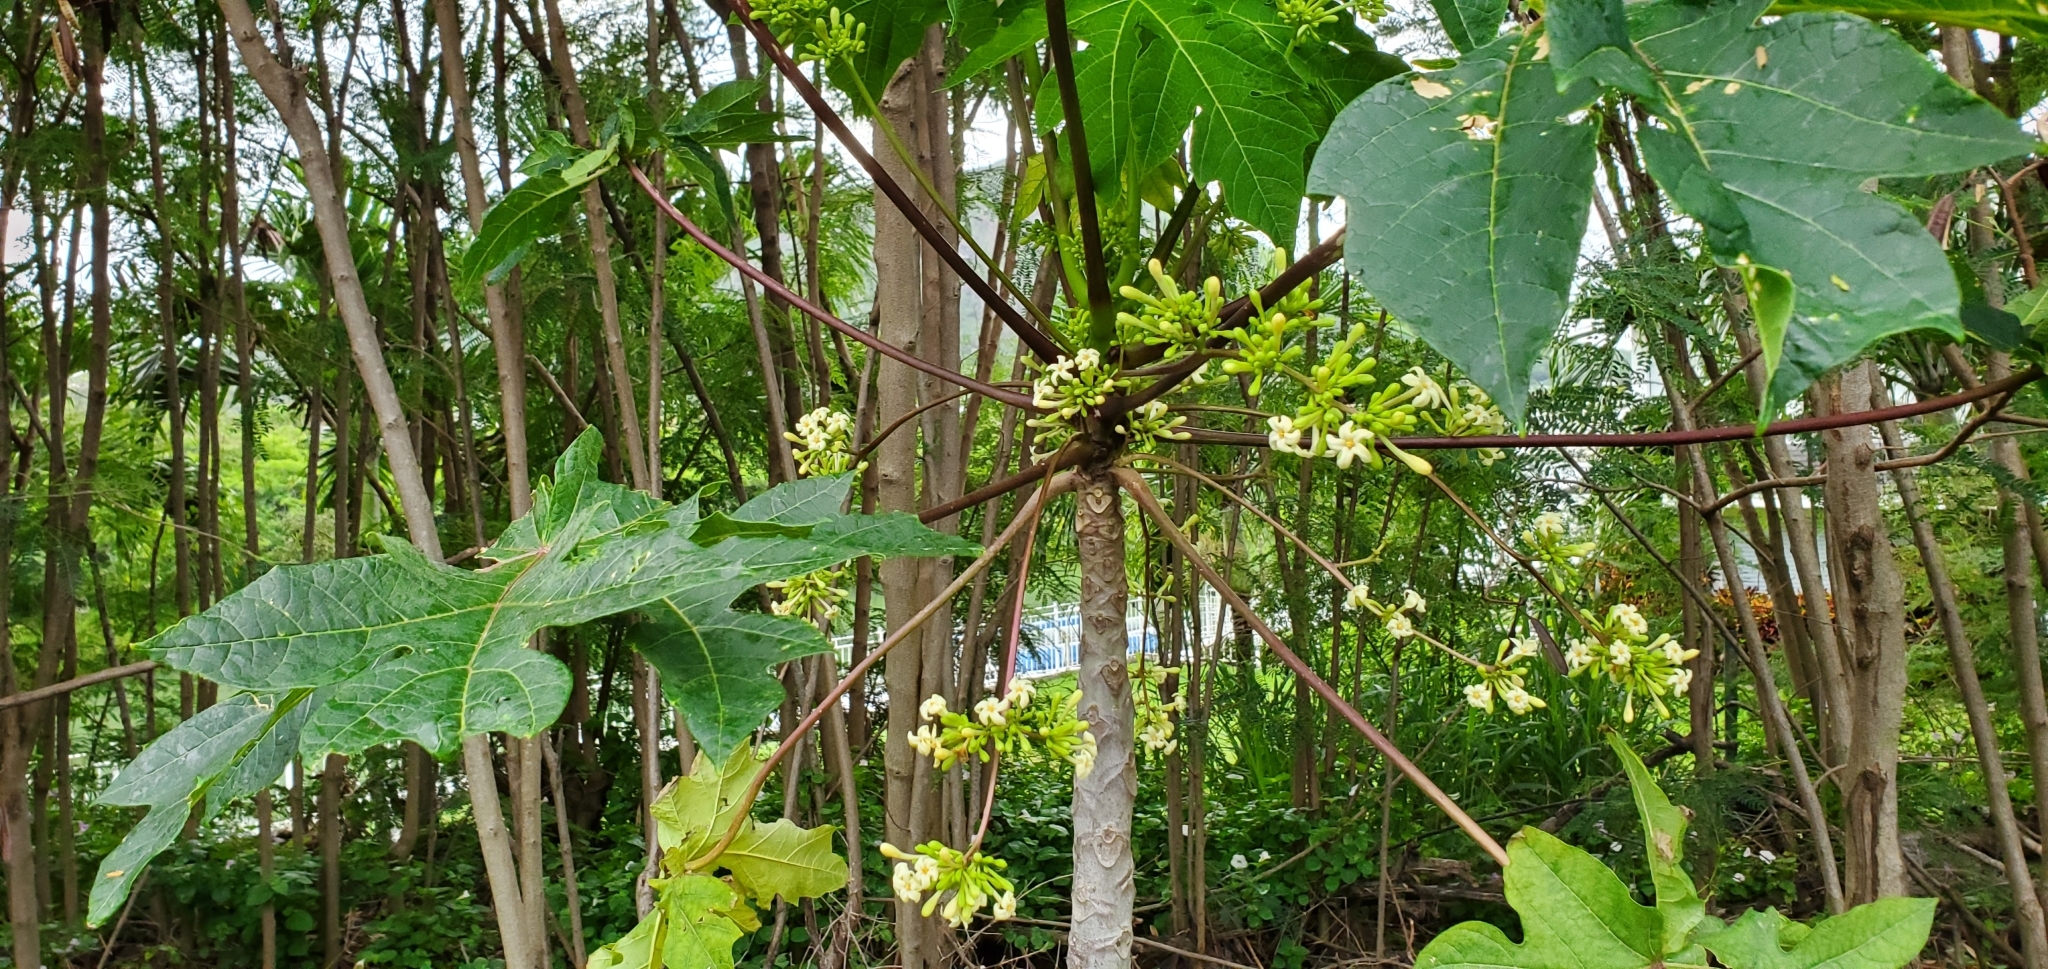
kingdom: Plantae
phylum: Tracheophyta
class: Magnoliopsida
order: Brassicales
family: Caricaceae
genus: Carica
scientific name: Carica papaya
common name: Papaya
